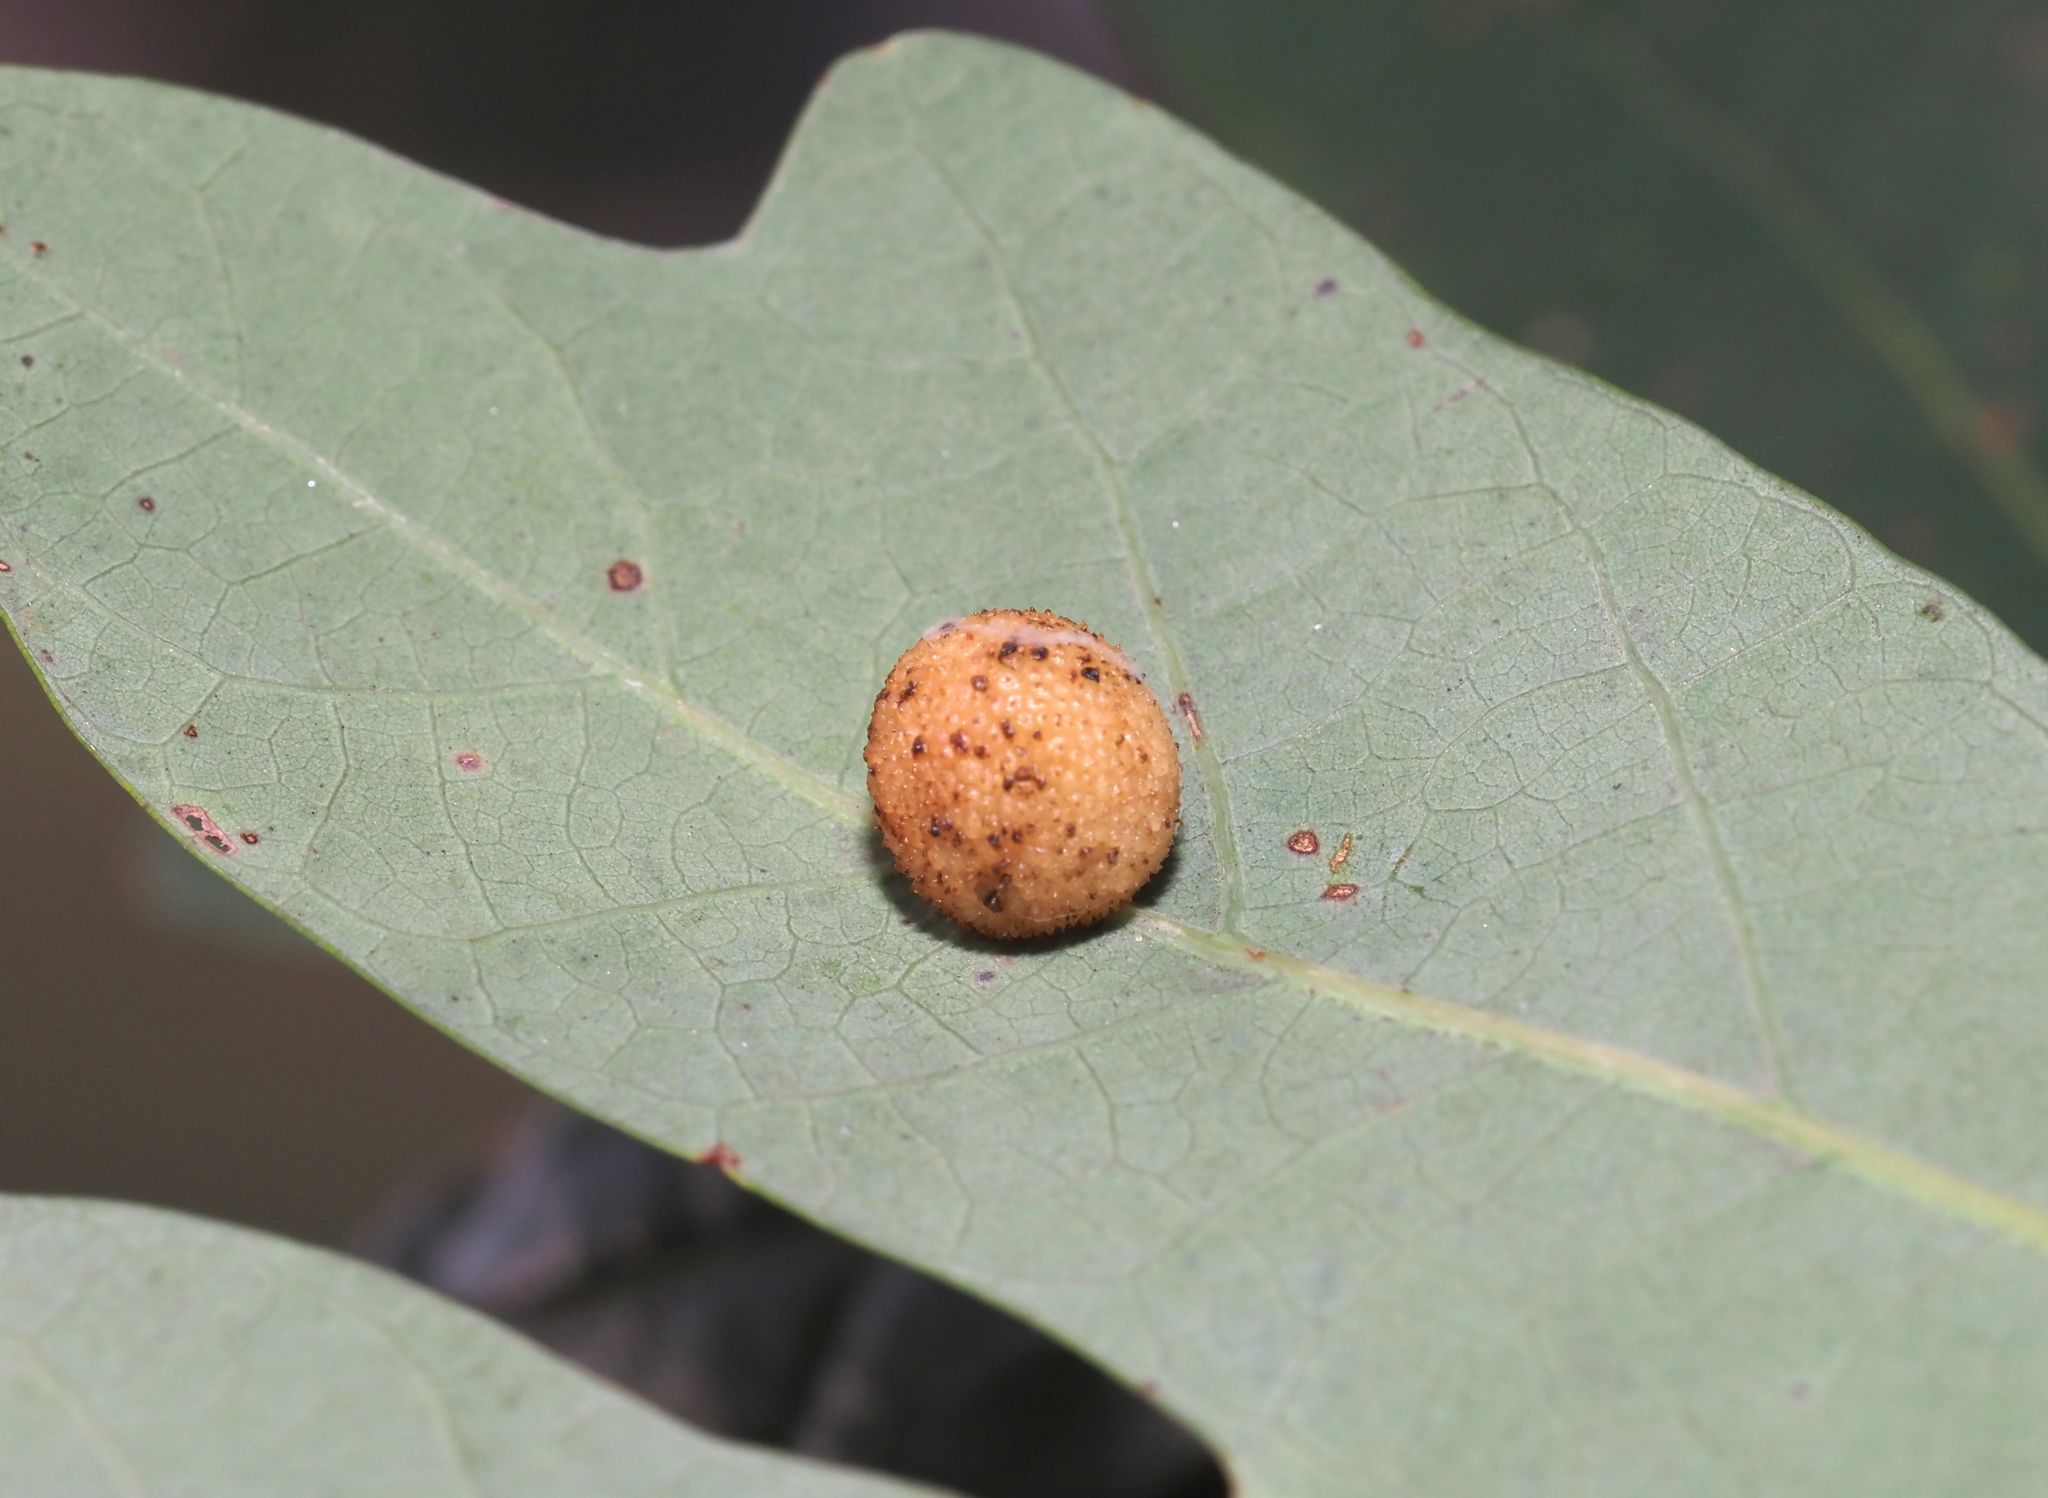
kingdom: Animalia
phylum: Arthropoda
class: Insecta
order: Hymenoptera
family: Cynipidae
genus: Acraspis
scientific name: Acraspis
